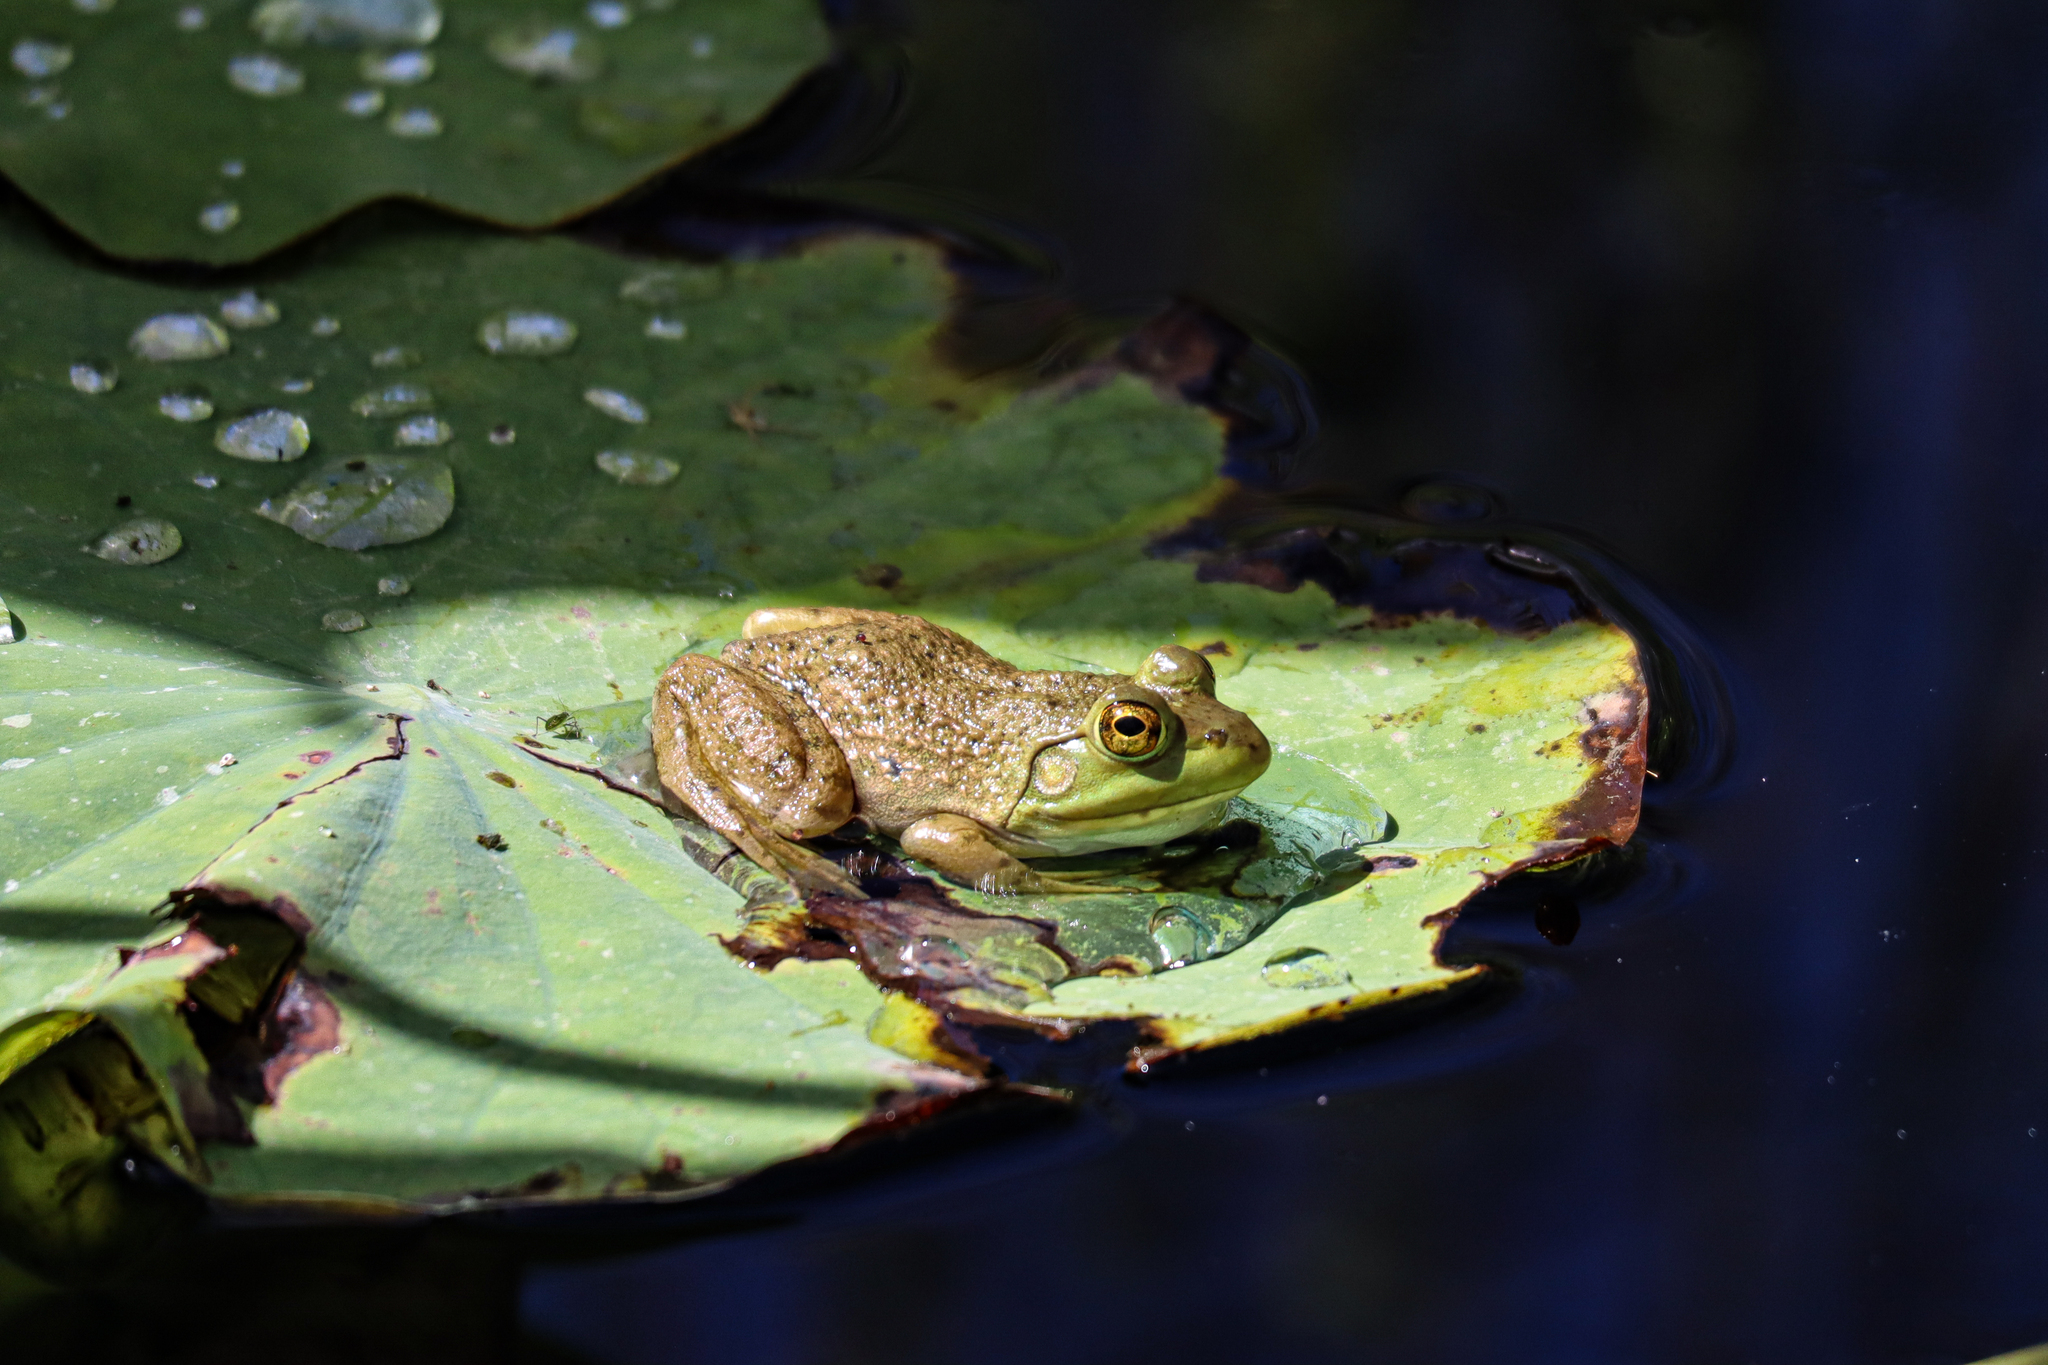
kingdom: Animalia
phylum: Chordata
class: Amphibia
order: Anura
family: Ranidae
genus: Lithobates
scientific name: Lithobates catesbeianus
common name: American bullfrog
